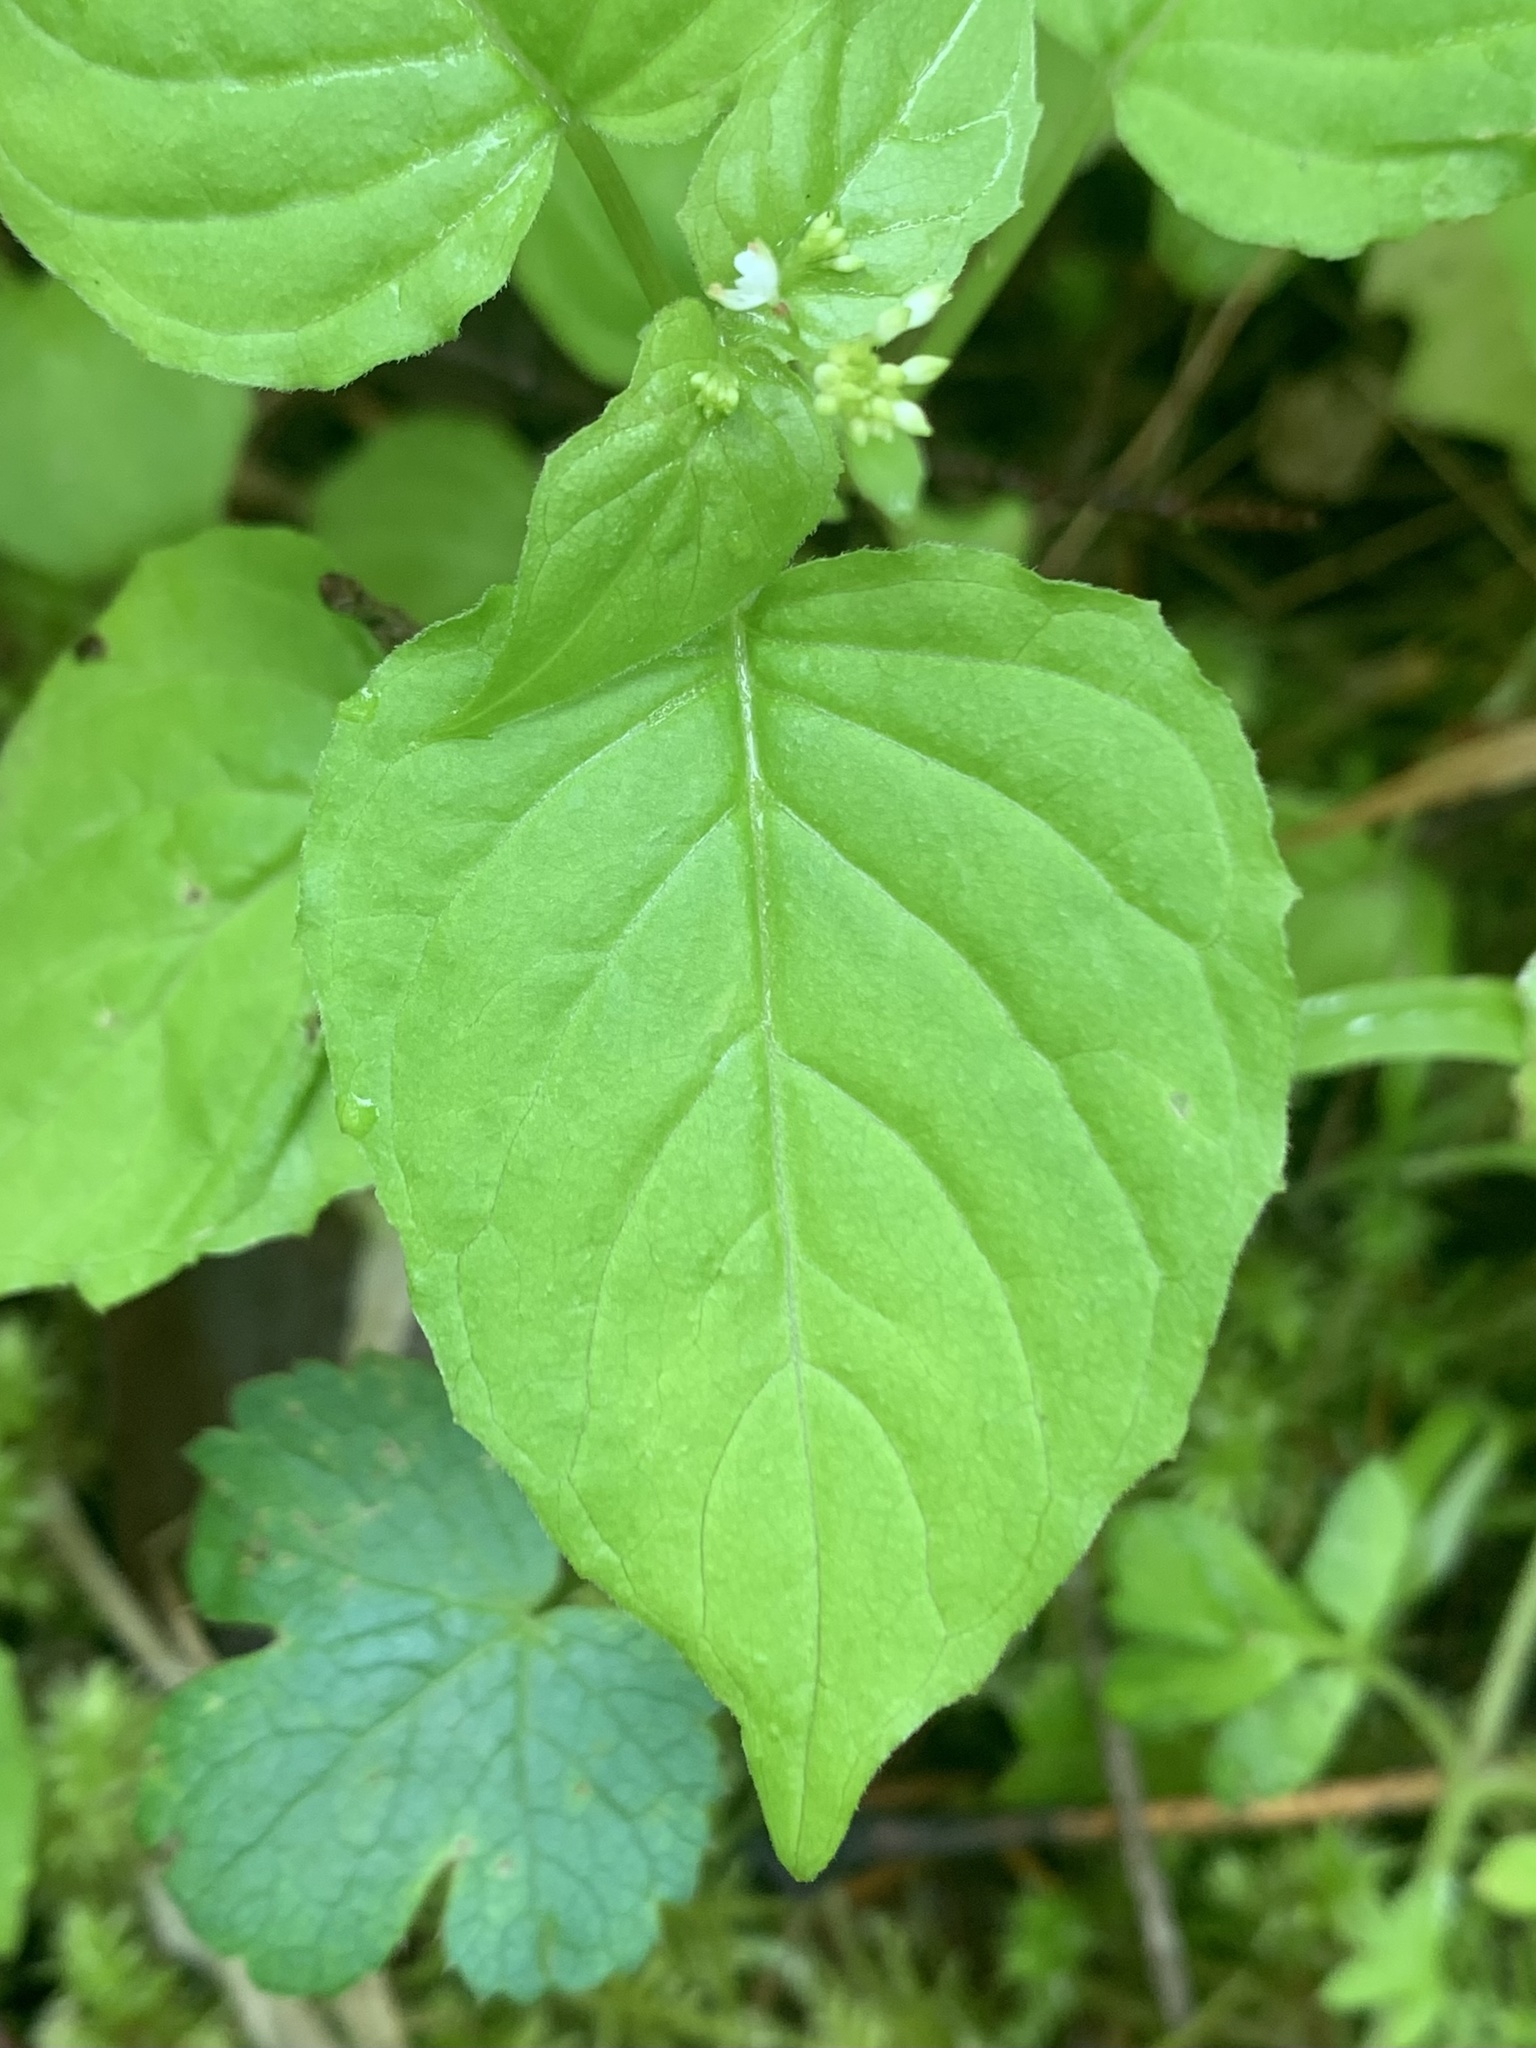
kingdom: Plantae
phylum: Tracheophyta
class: Magnoliopsida
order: Myrtales
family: Onagraceae
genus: Circaea
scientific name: Circaea alpina
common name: Alpine enchanter's-nightshade
